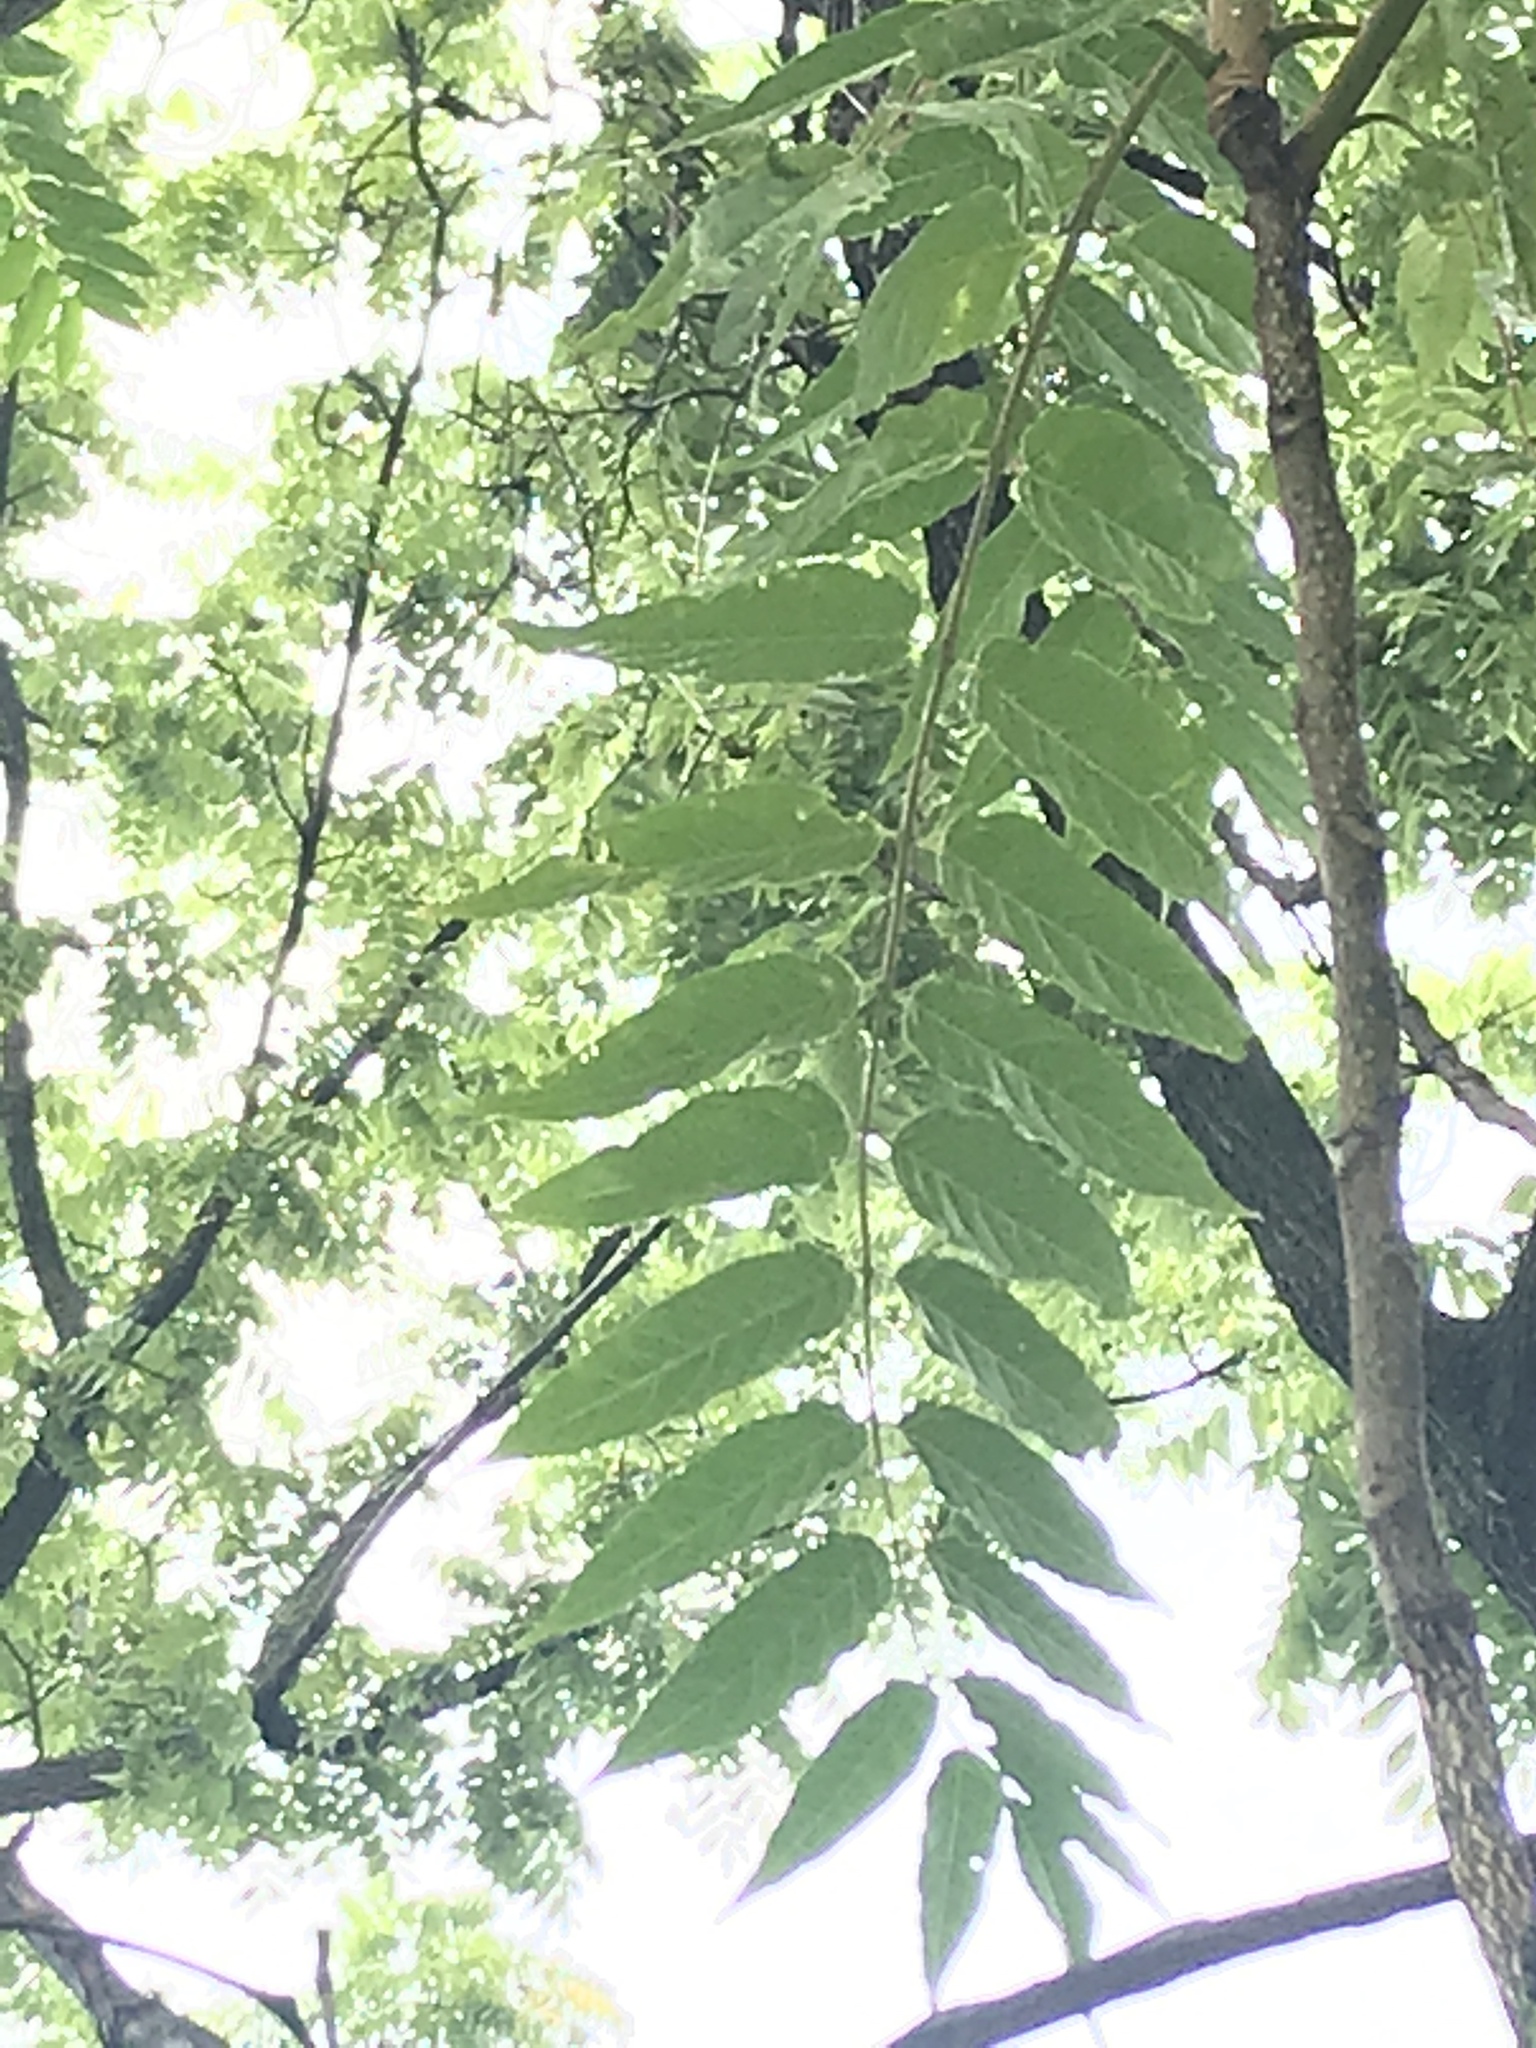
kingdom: Plantae
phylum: Tracheophyta
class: Magnoliopsida
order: Sapindales
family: Simaroubaceae
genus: Ailanthus
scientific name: Ailanthus altissima
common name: Tree-of-heaven
